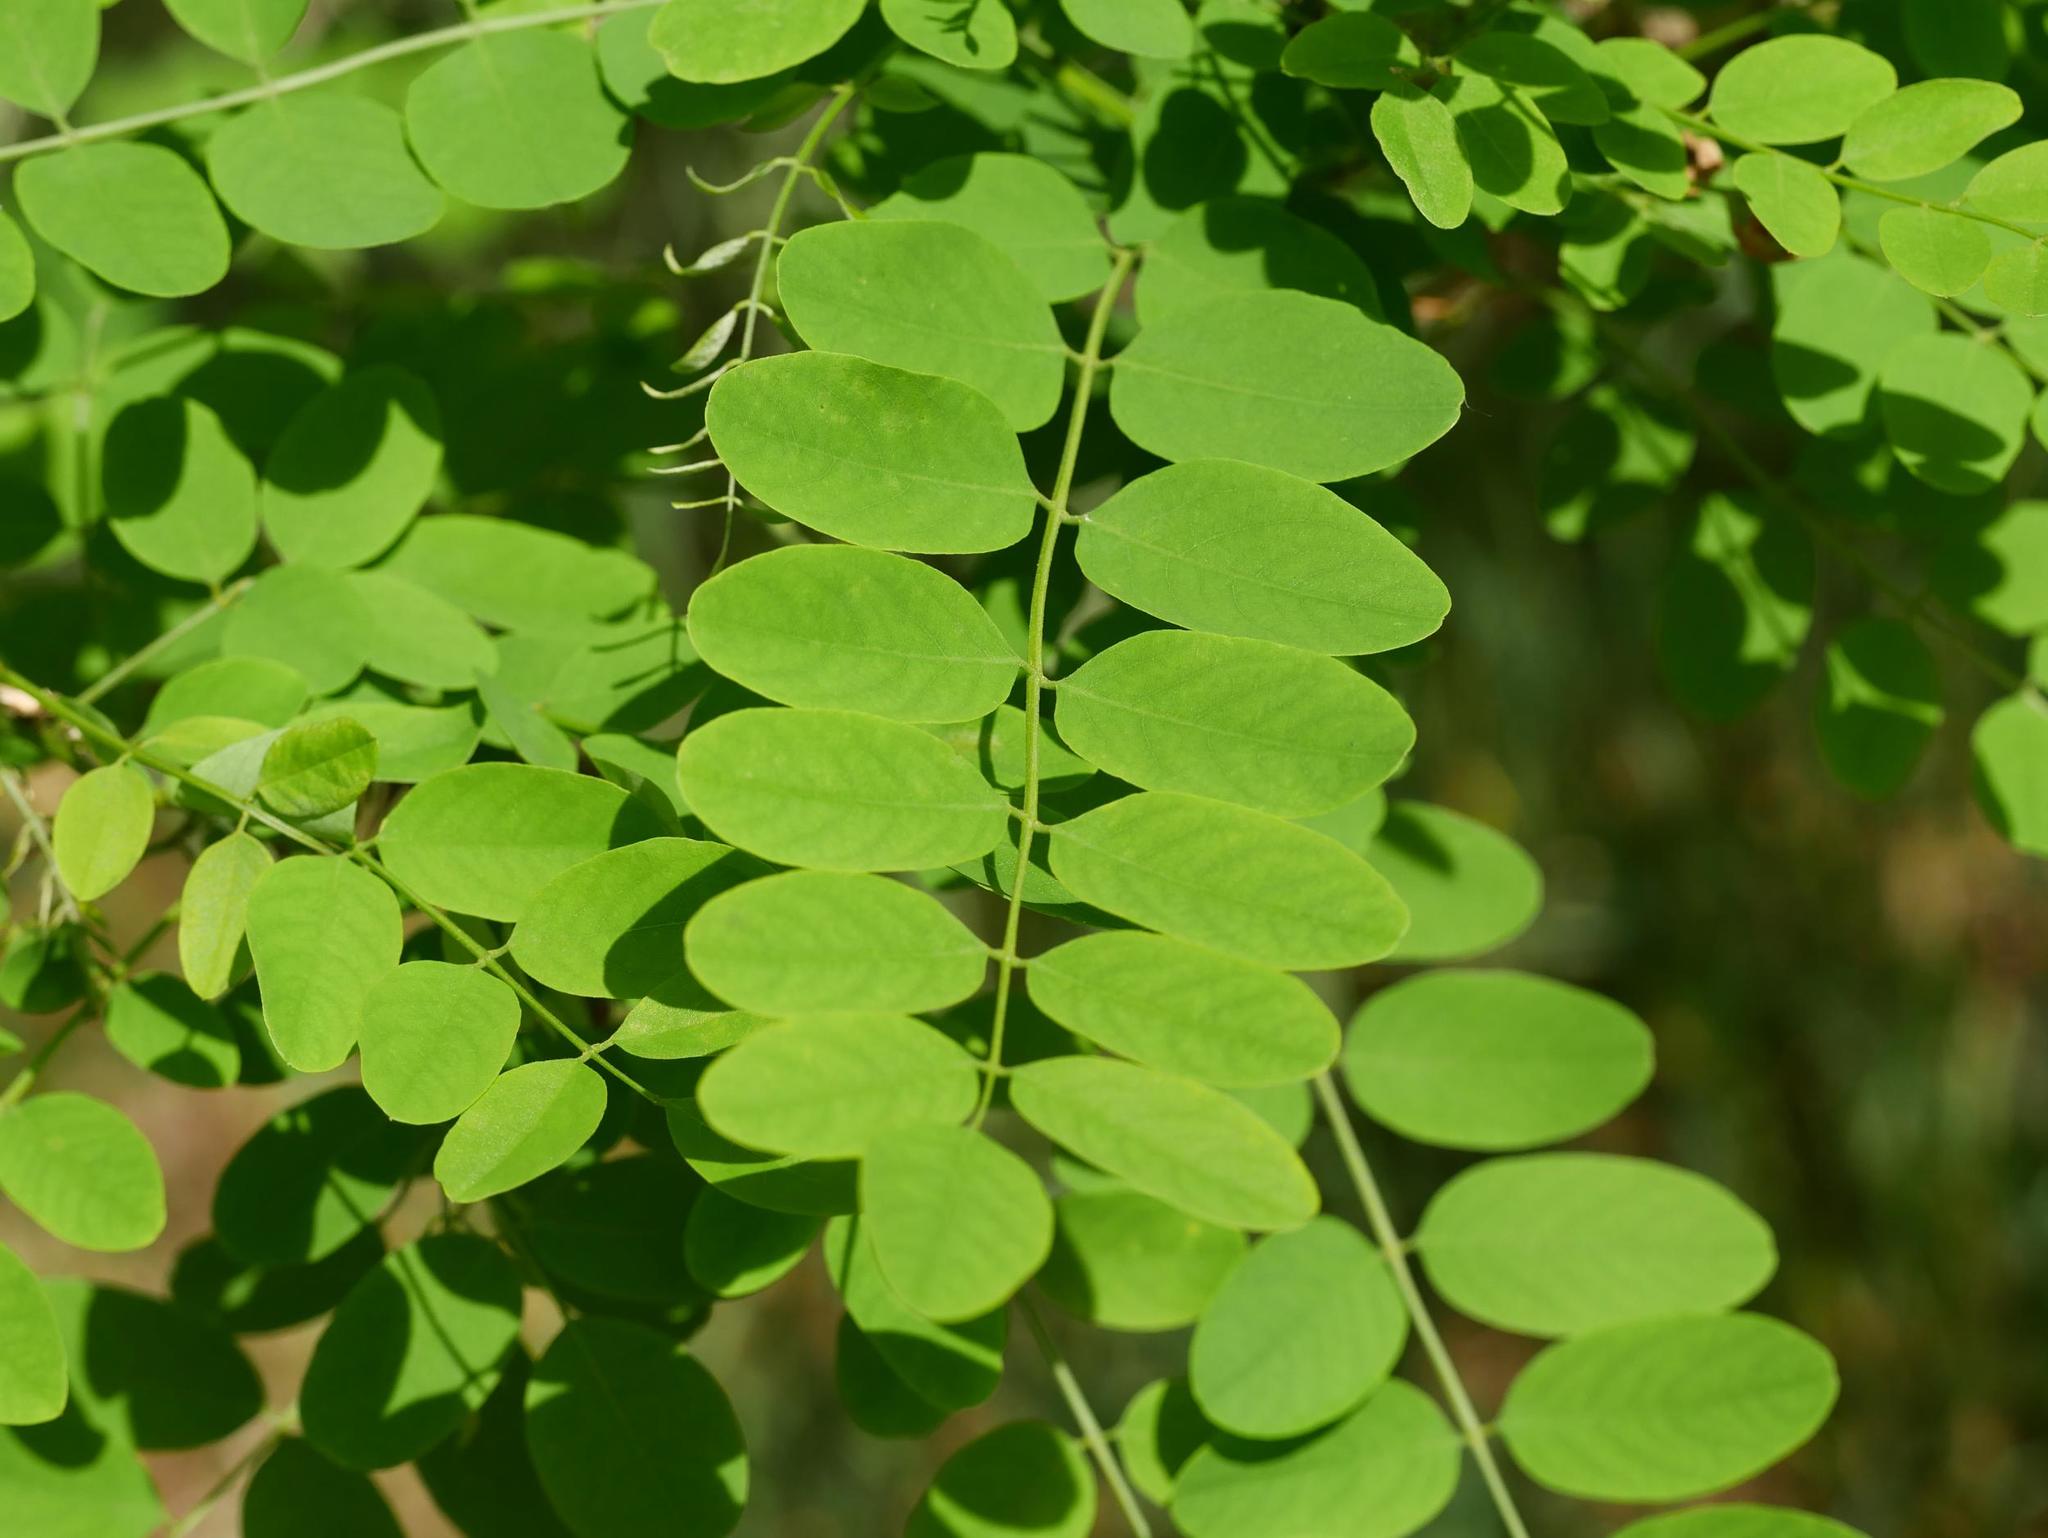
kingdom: Plantae
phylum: Tracheophyta
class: Magnoliopsida
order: Fabales
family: Fabaceae
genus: Robinia
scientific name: Robinia pseudoacacia
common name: Black locust
